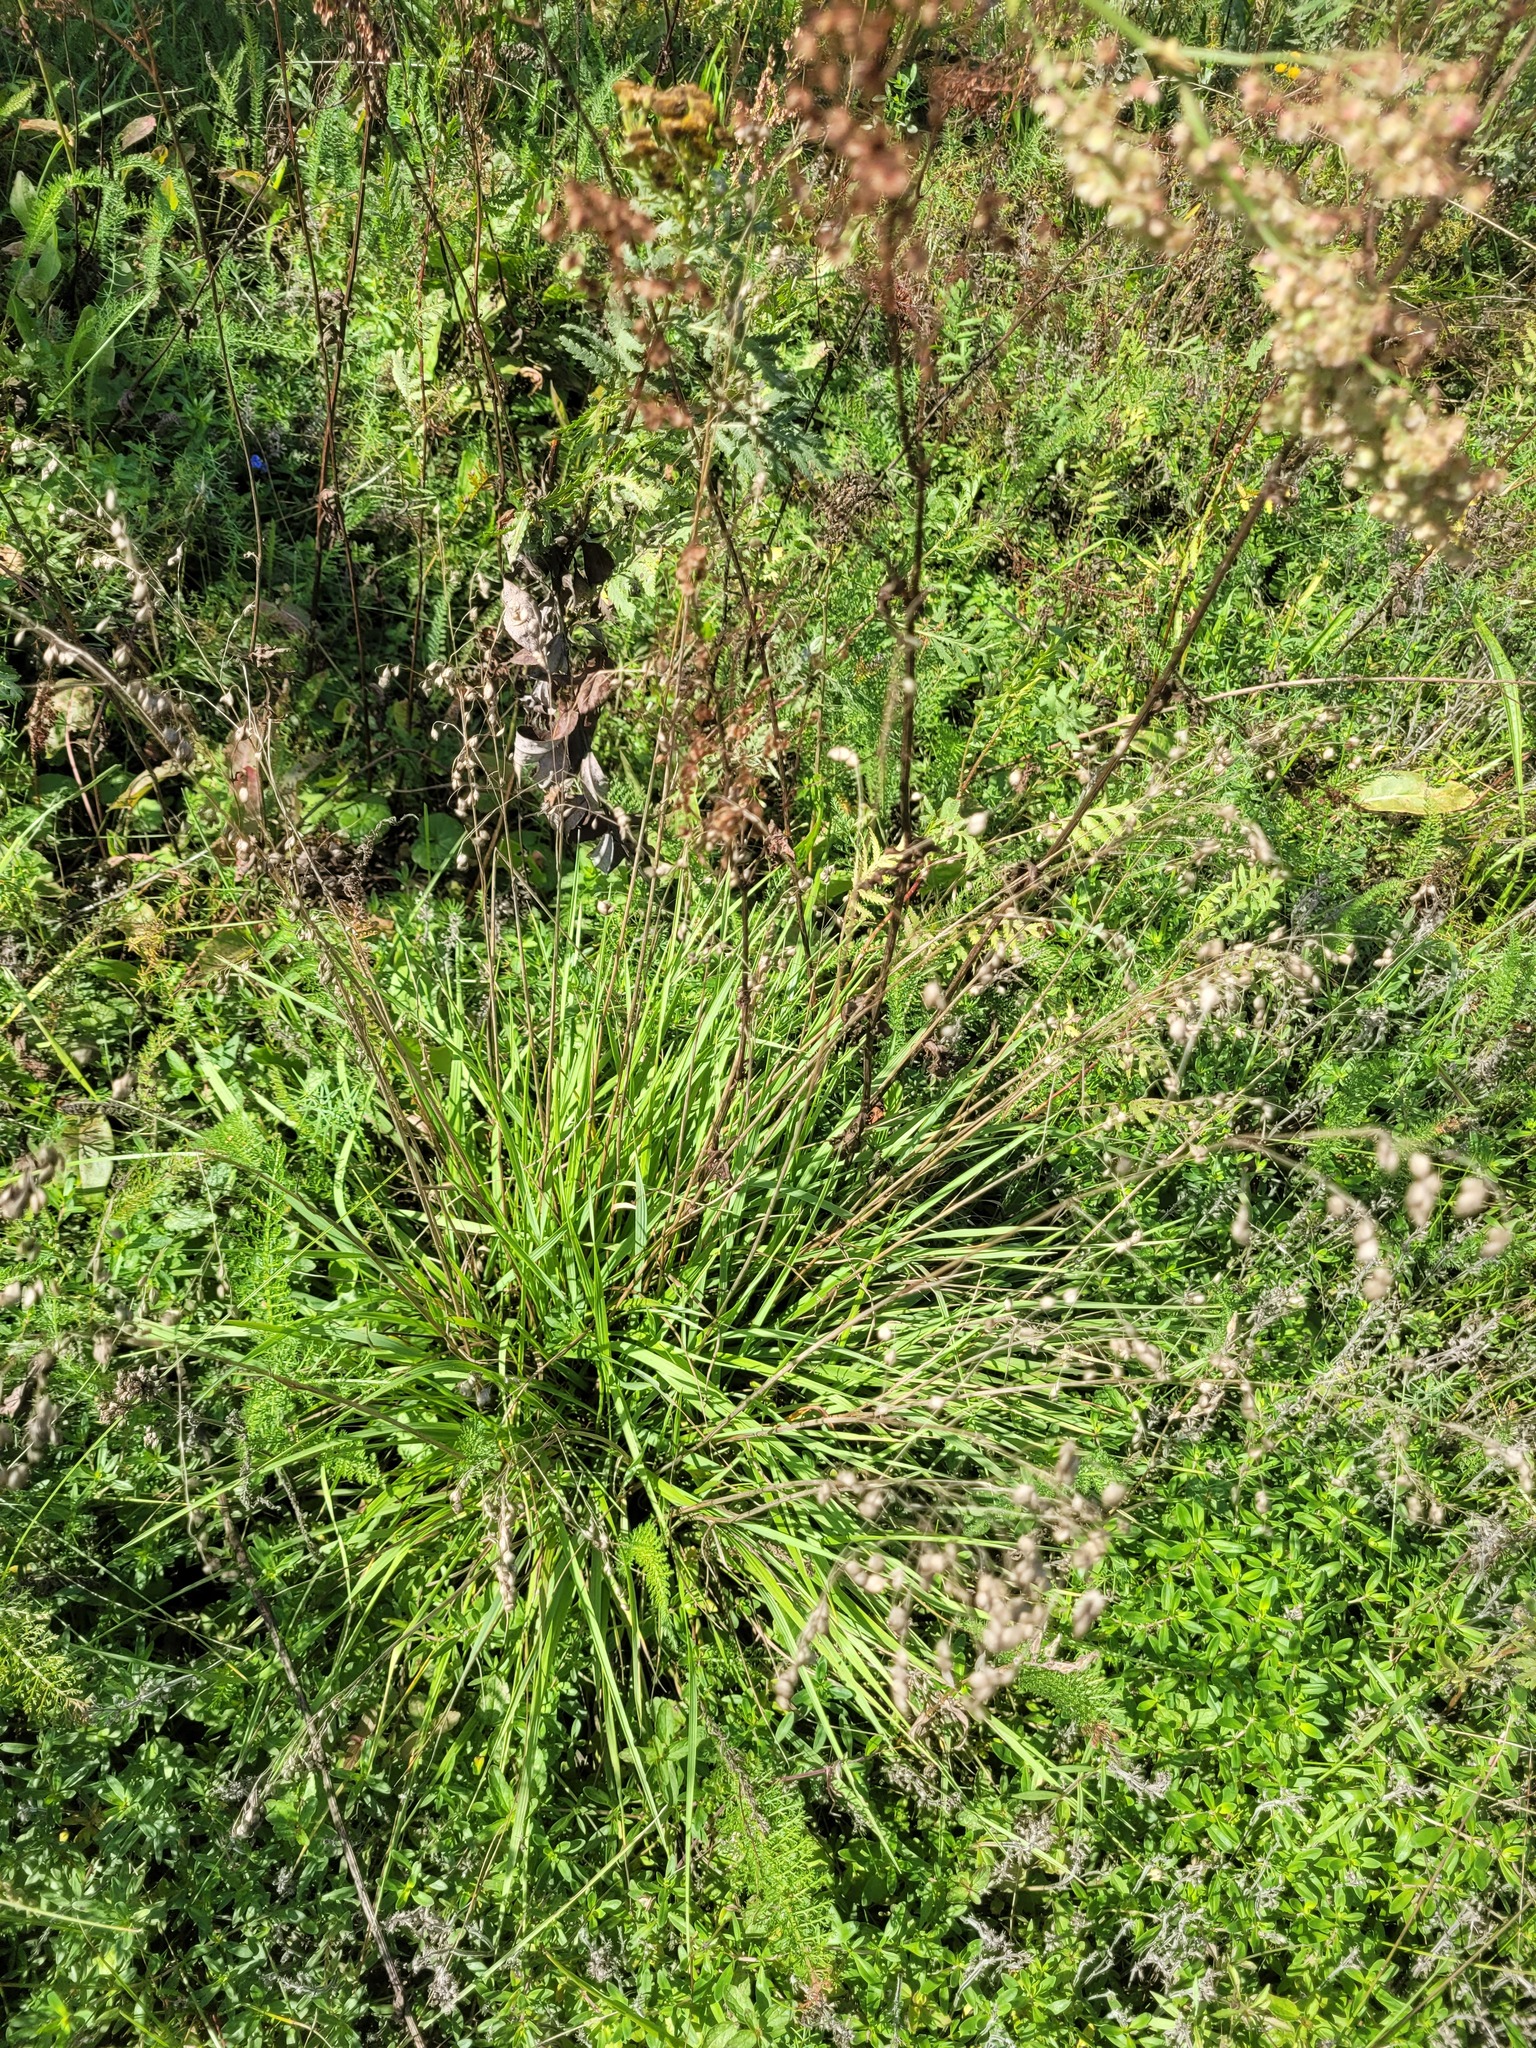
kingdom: Plantae
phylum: Tracheophyta
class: Liliopsida
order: Poales
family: Poaceae
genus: Briza
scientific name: Briza media
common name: Quaking grass
